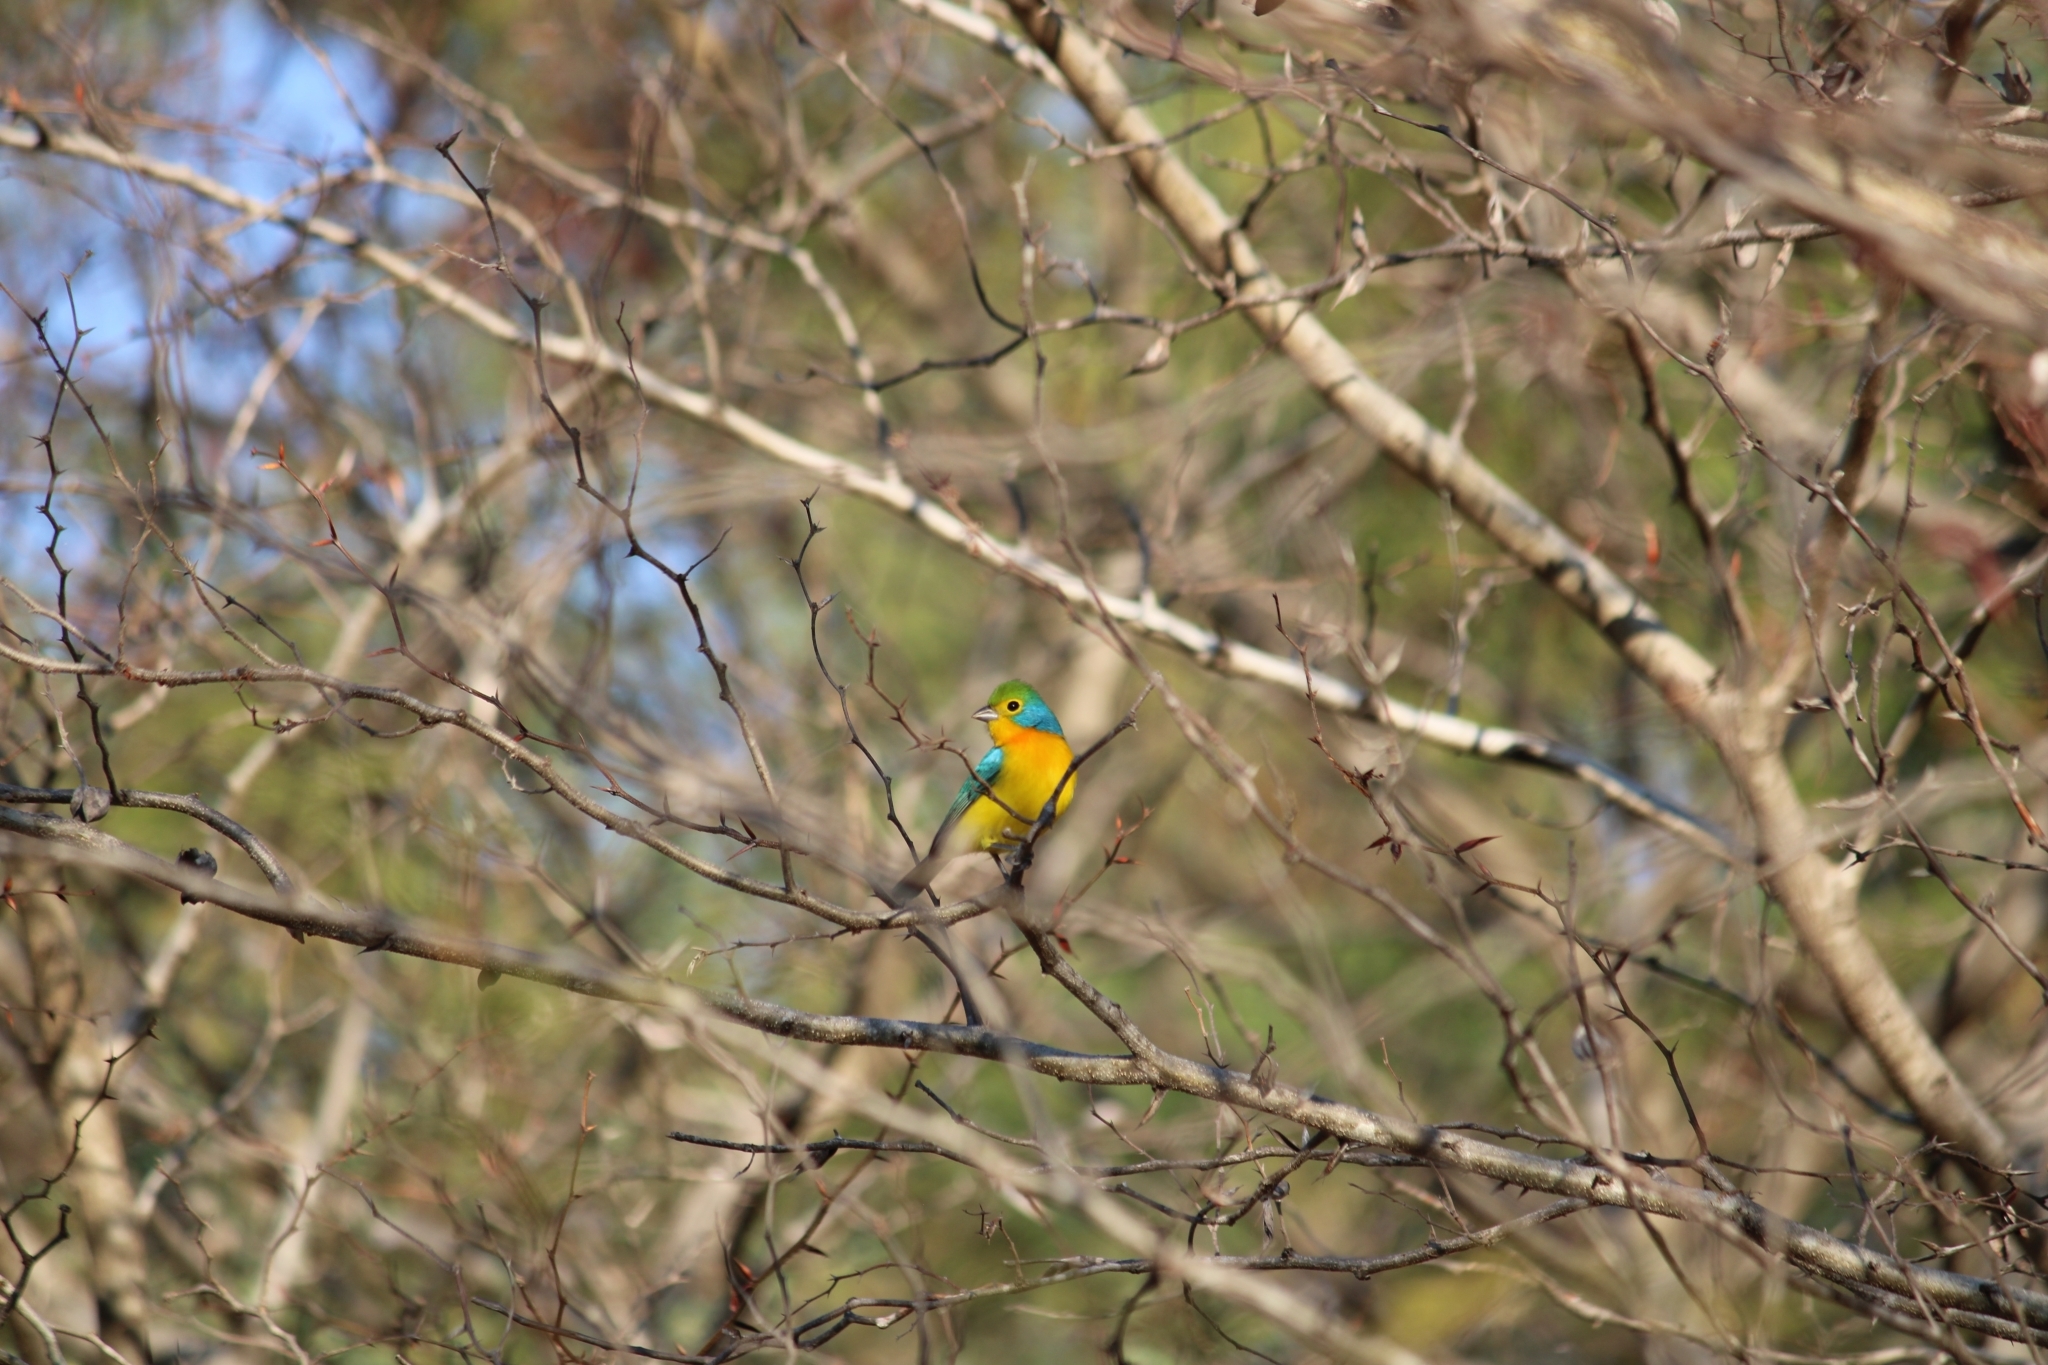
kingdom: Animalia
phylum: Chordata
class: Aves
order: Passeriformes
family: Cardinalidae
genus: Passerina
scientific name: Passerina leclancherii
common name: Orange-breasted bunting
